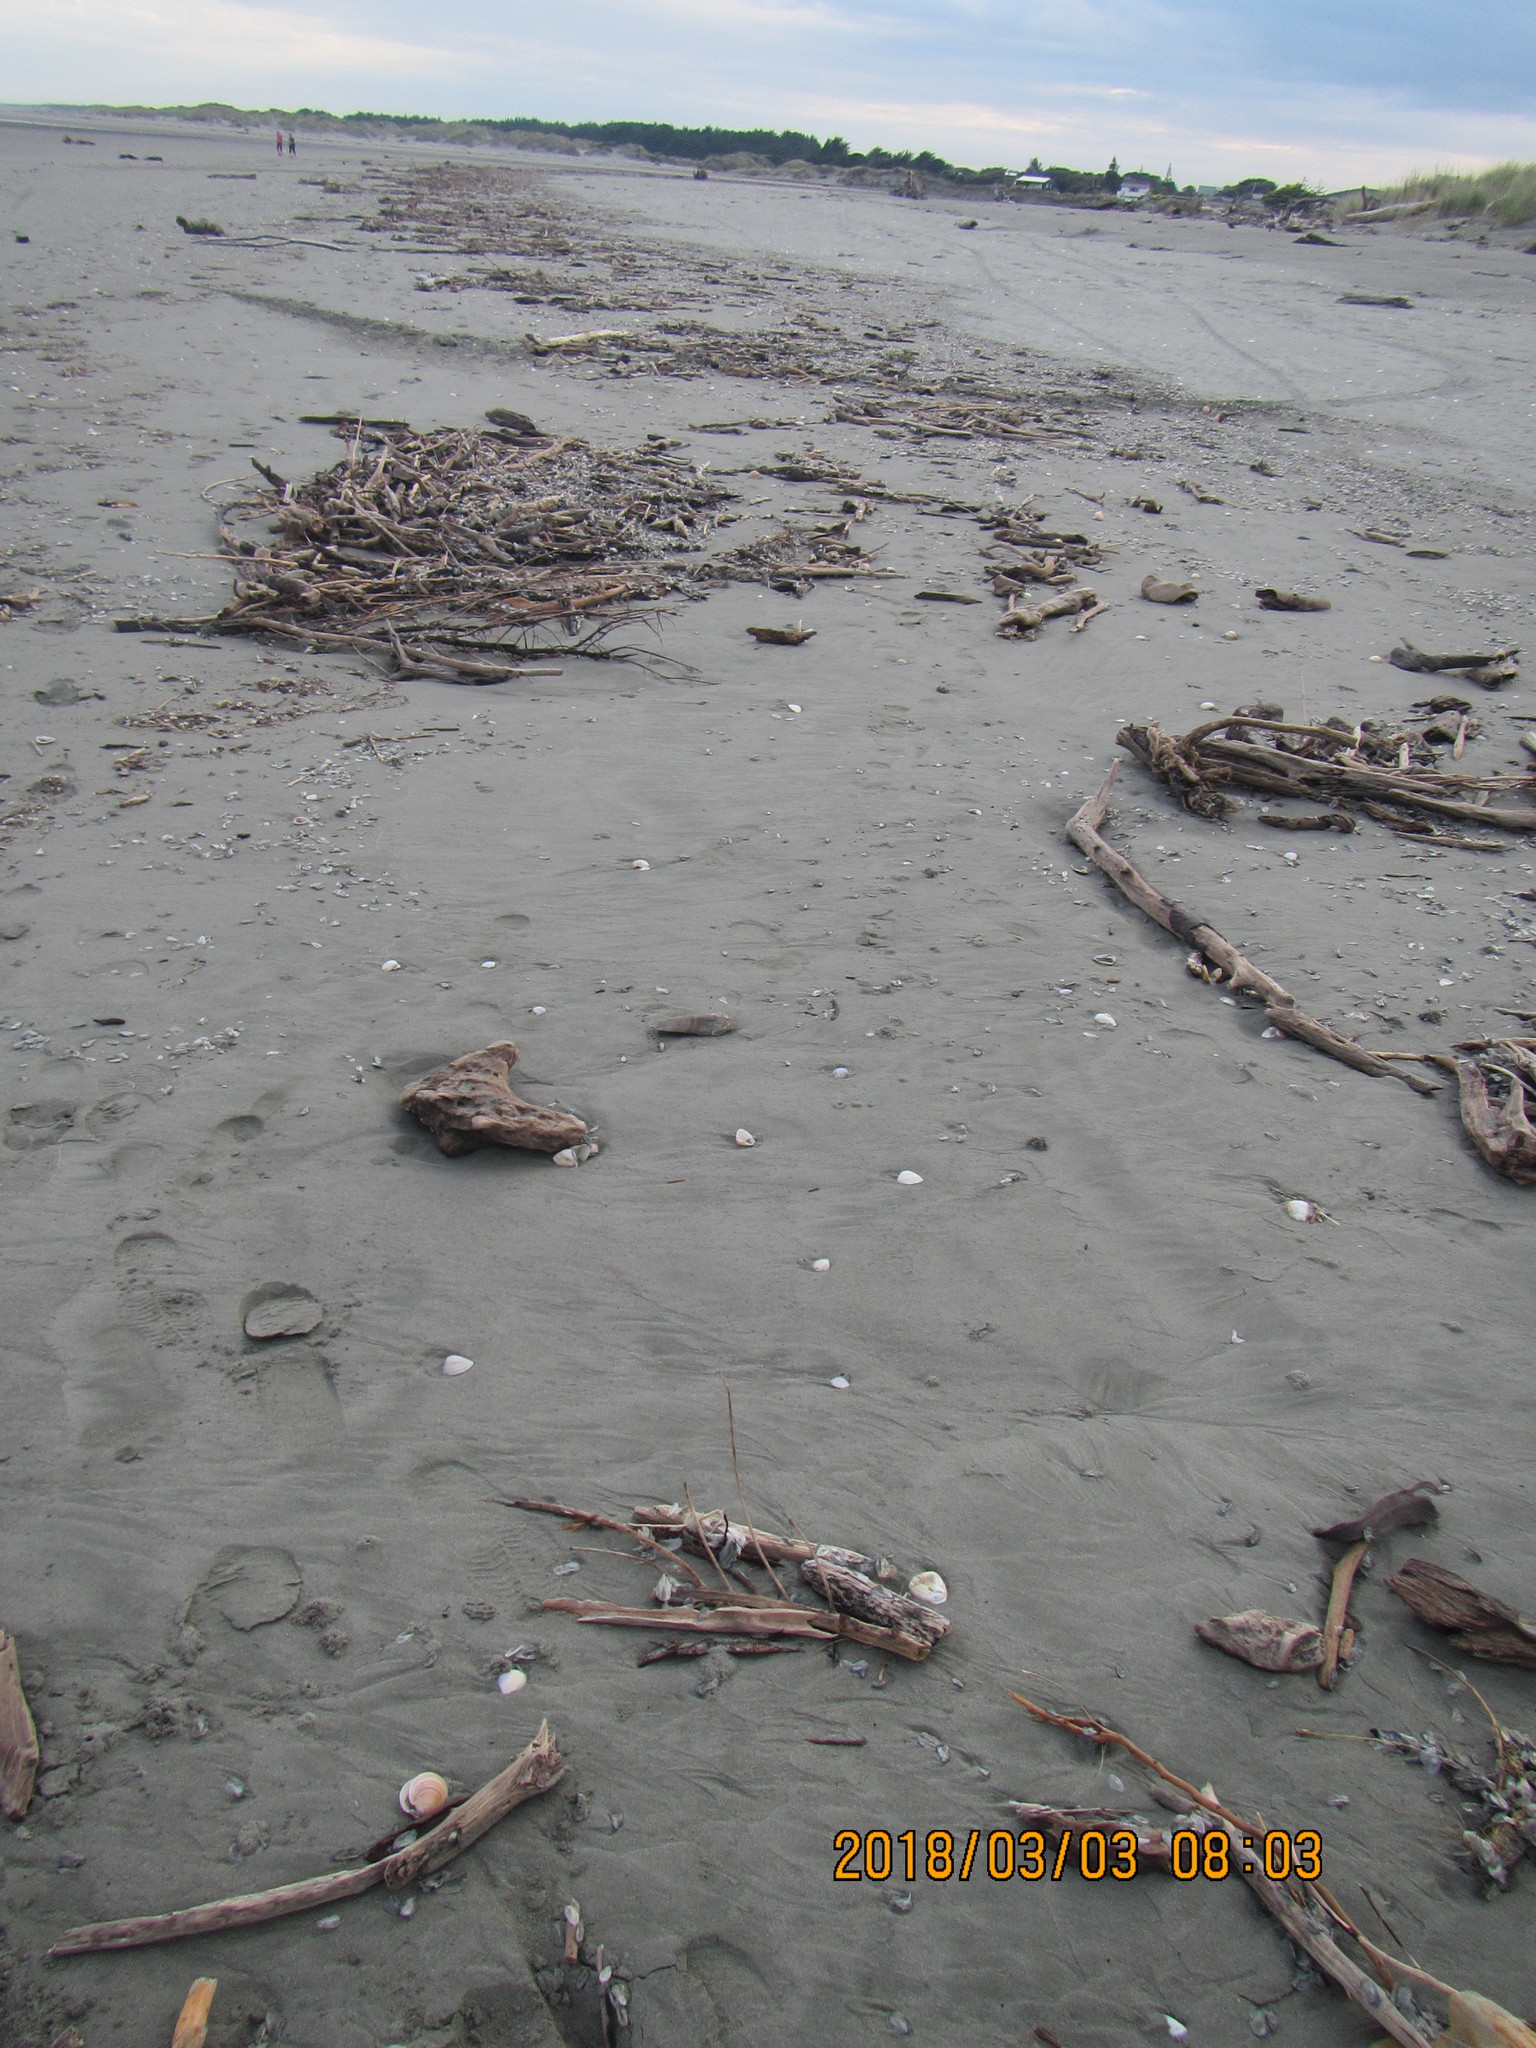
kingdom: Animalia
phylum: Mollusca
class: Bivalvia
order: Ostreida
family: Pinnidae
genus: Atrina
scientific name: Atrina zelandica
